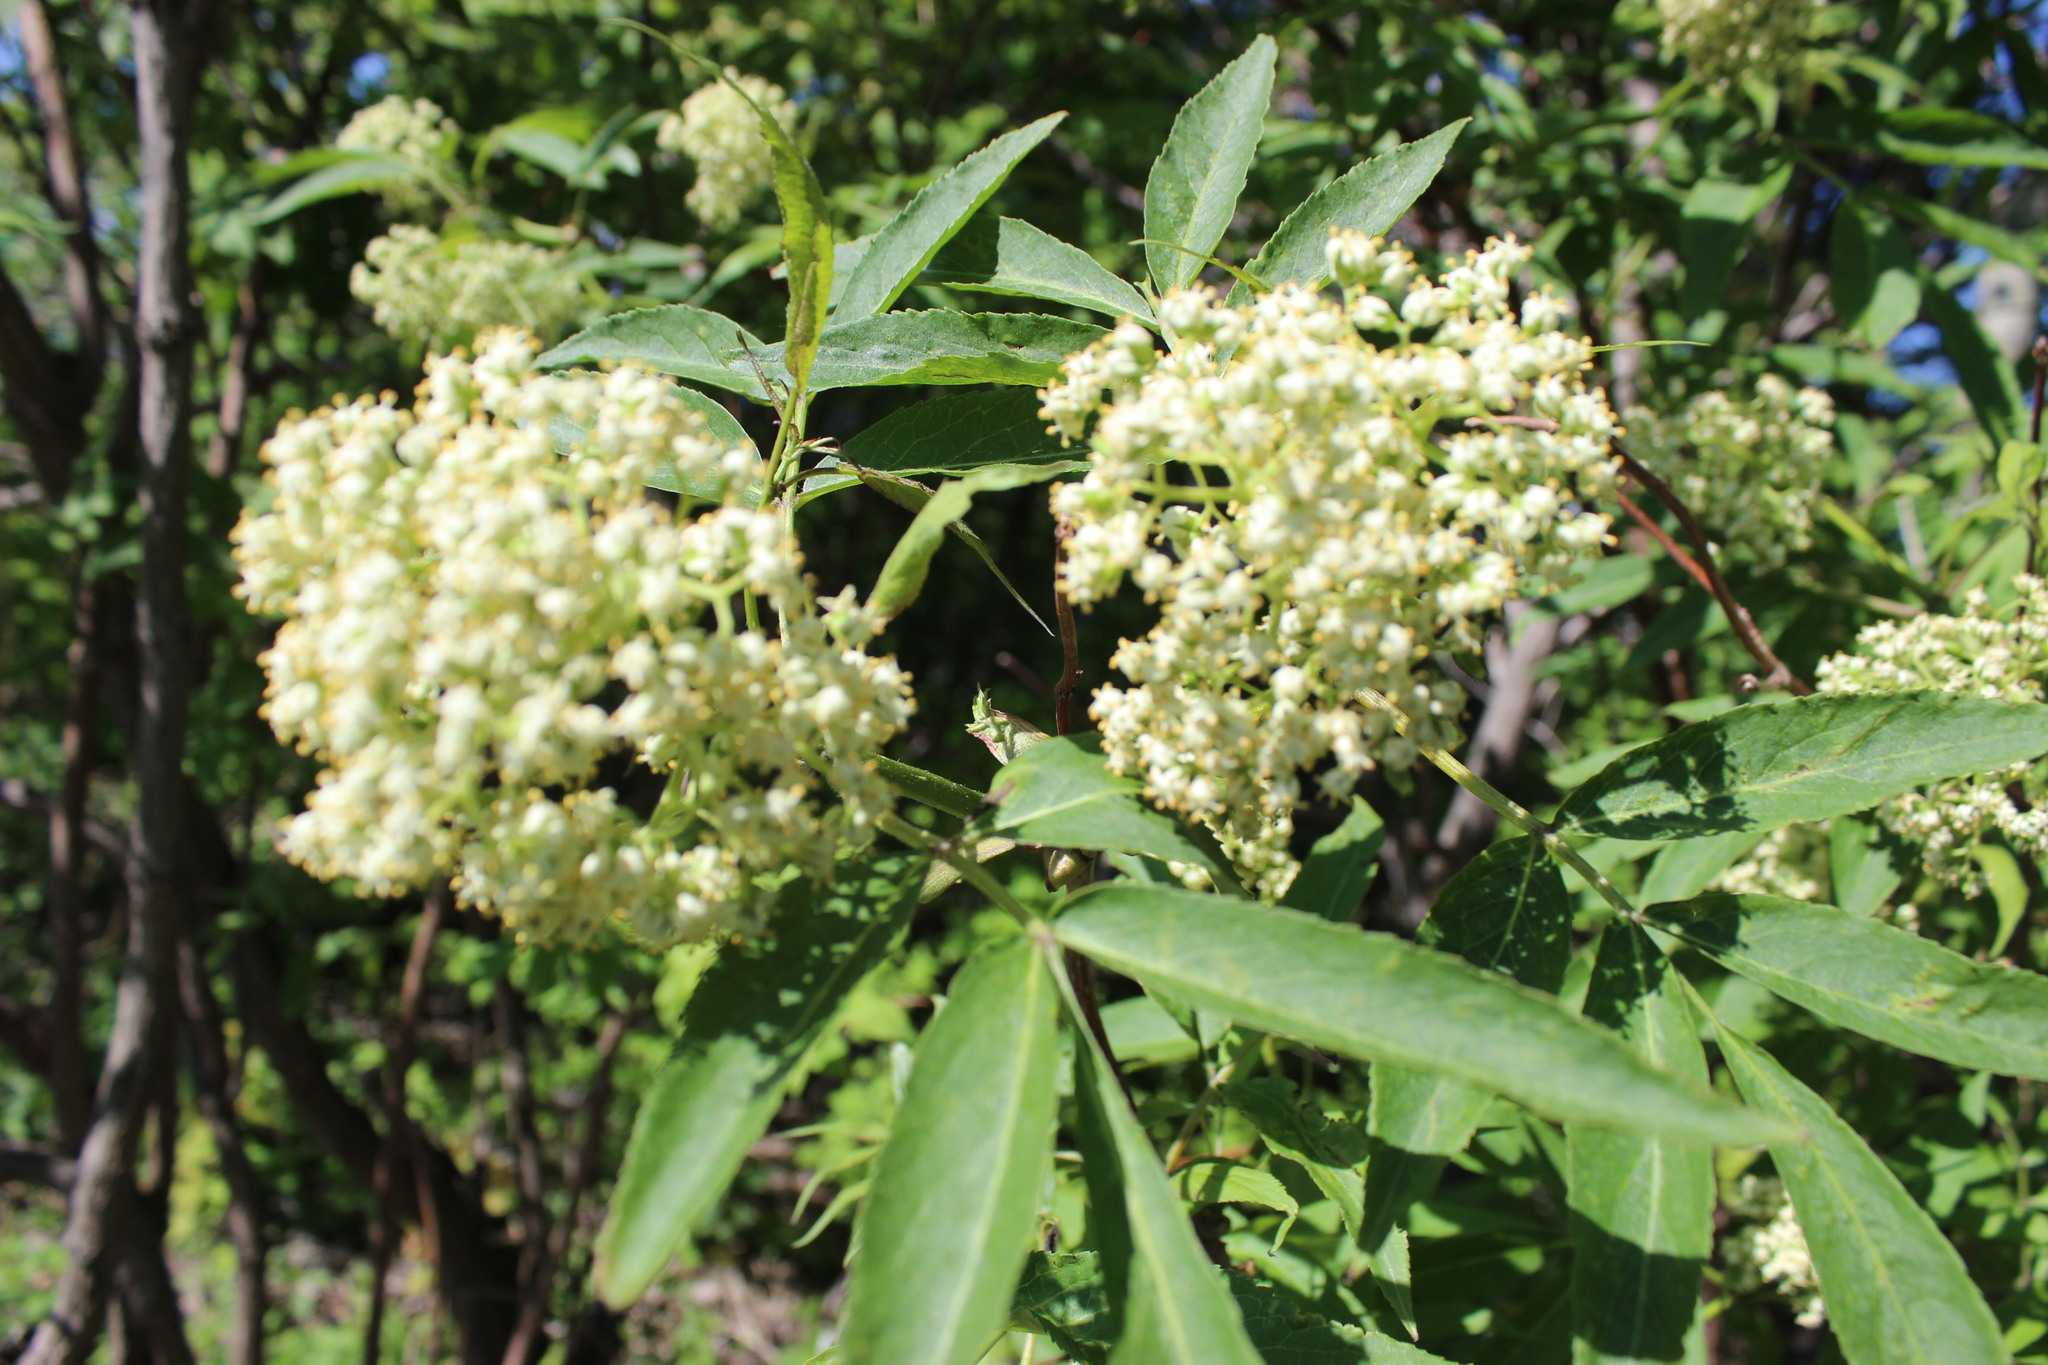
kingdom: Plantae
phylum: Tracheophyta
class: Magnoliopsida
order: Dipsacales
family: Viburnaceae
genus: Sambucus
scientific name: Sambucus sibirica
